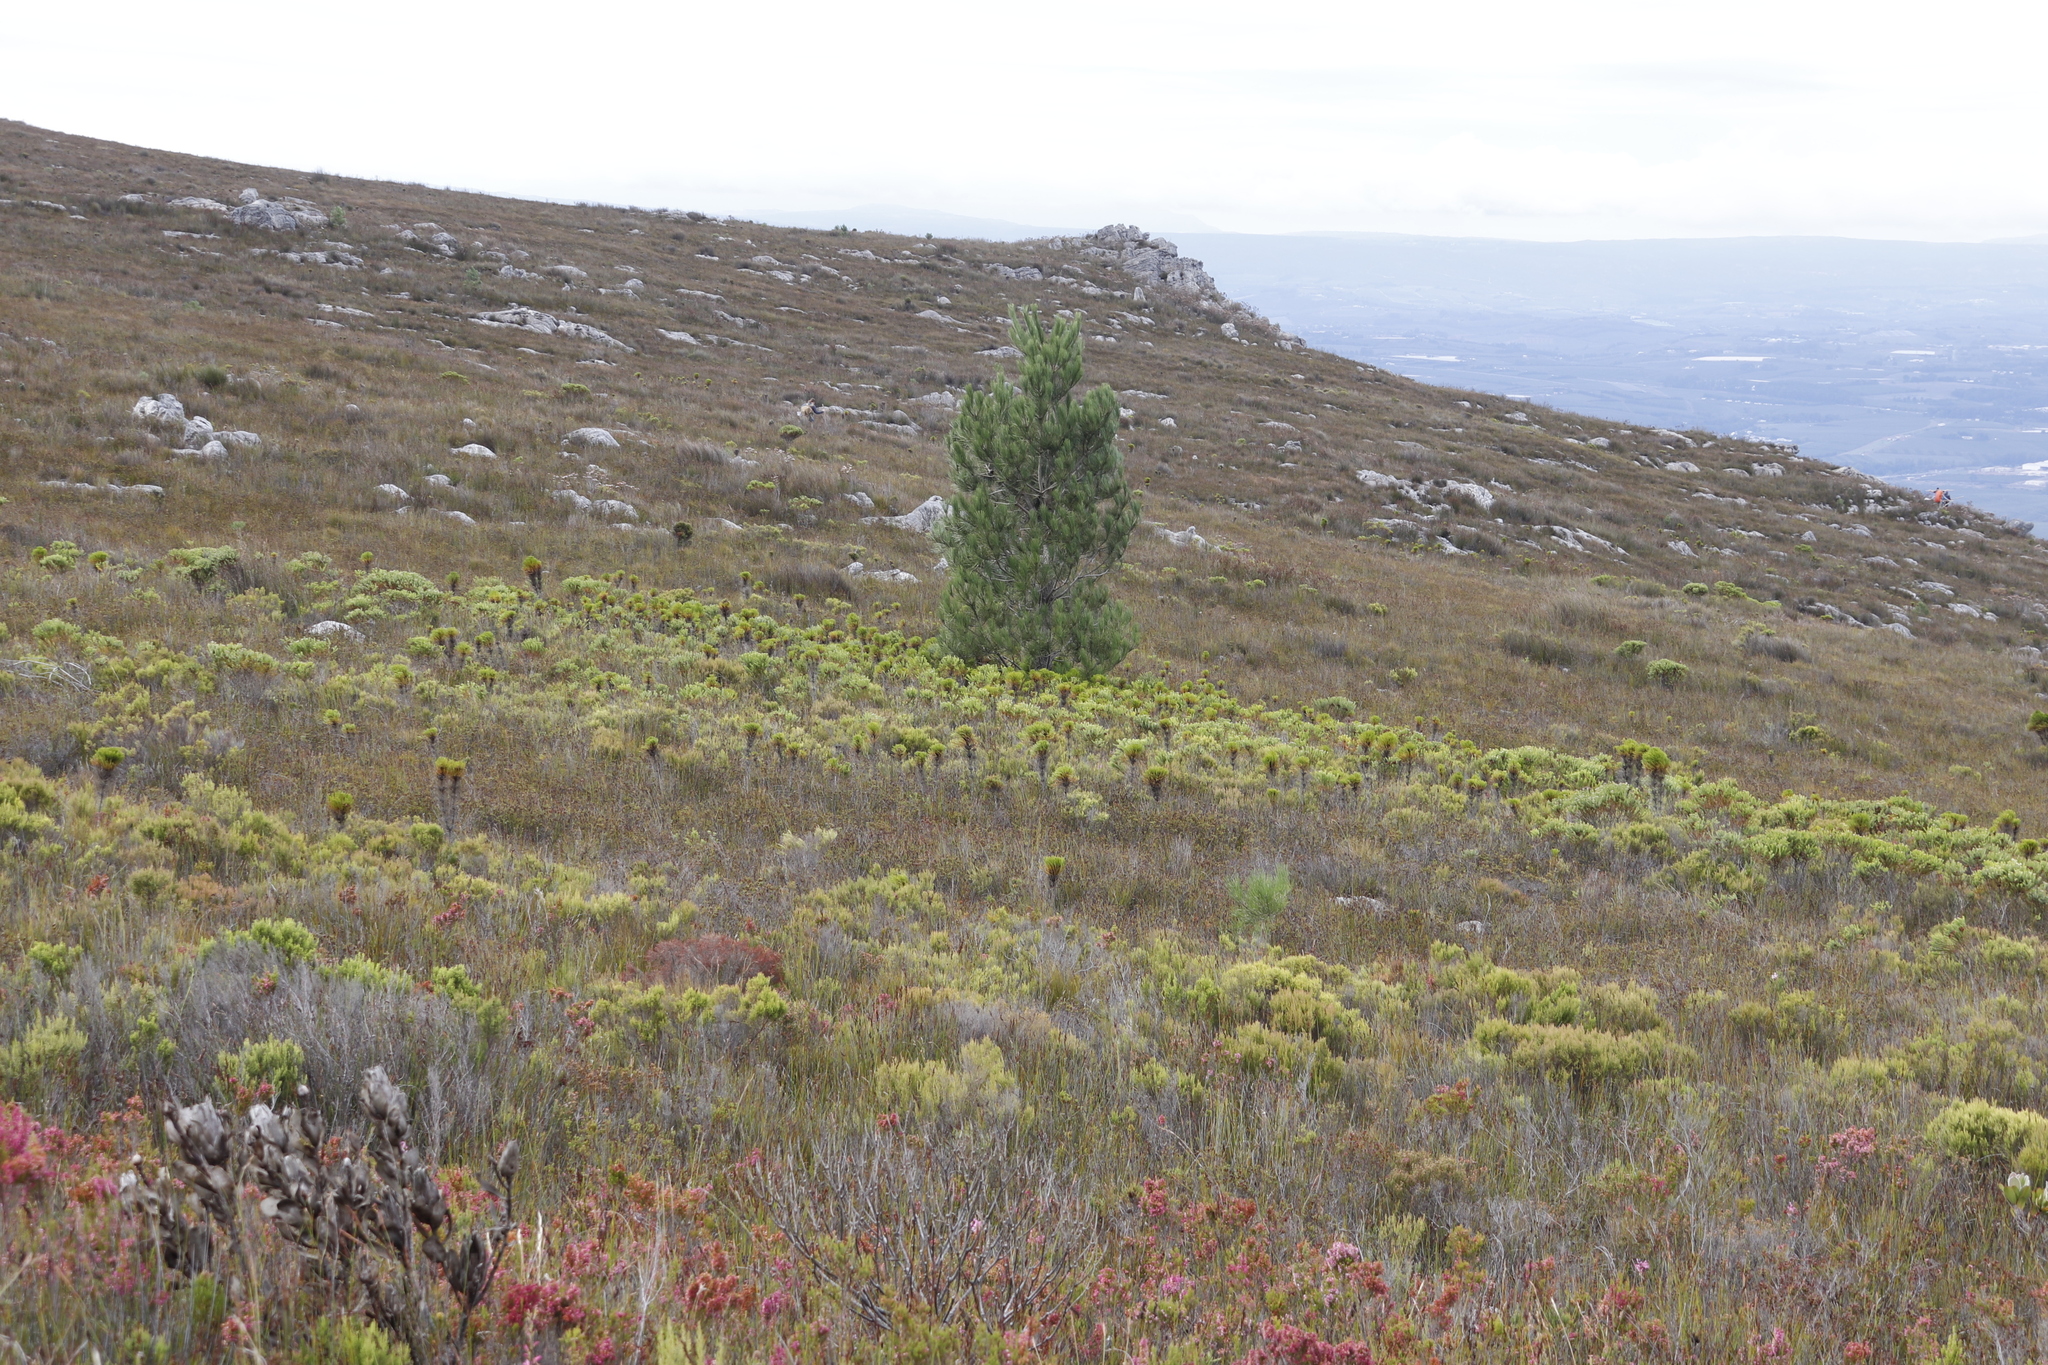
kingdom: Plantae
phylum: Tracheophyta
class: Magnoliopsida
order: Proteales
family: Proteaceae
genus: Protea
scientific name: Protea stokoei
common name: Pink sugarbush
